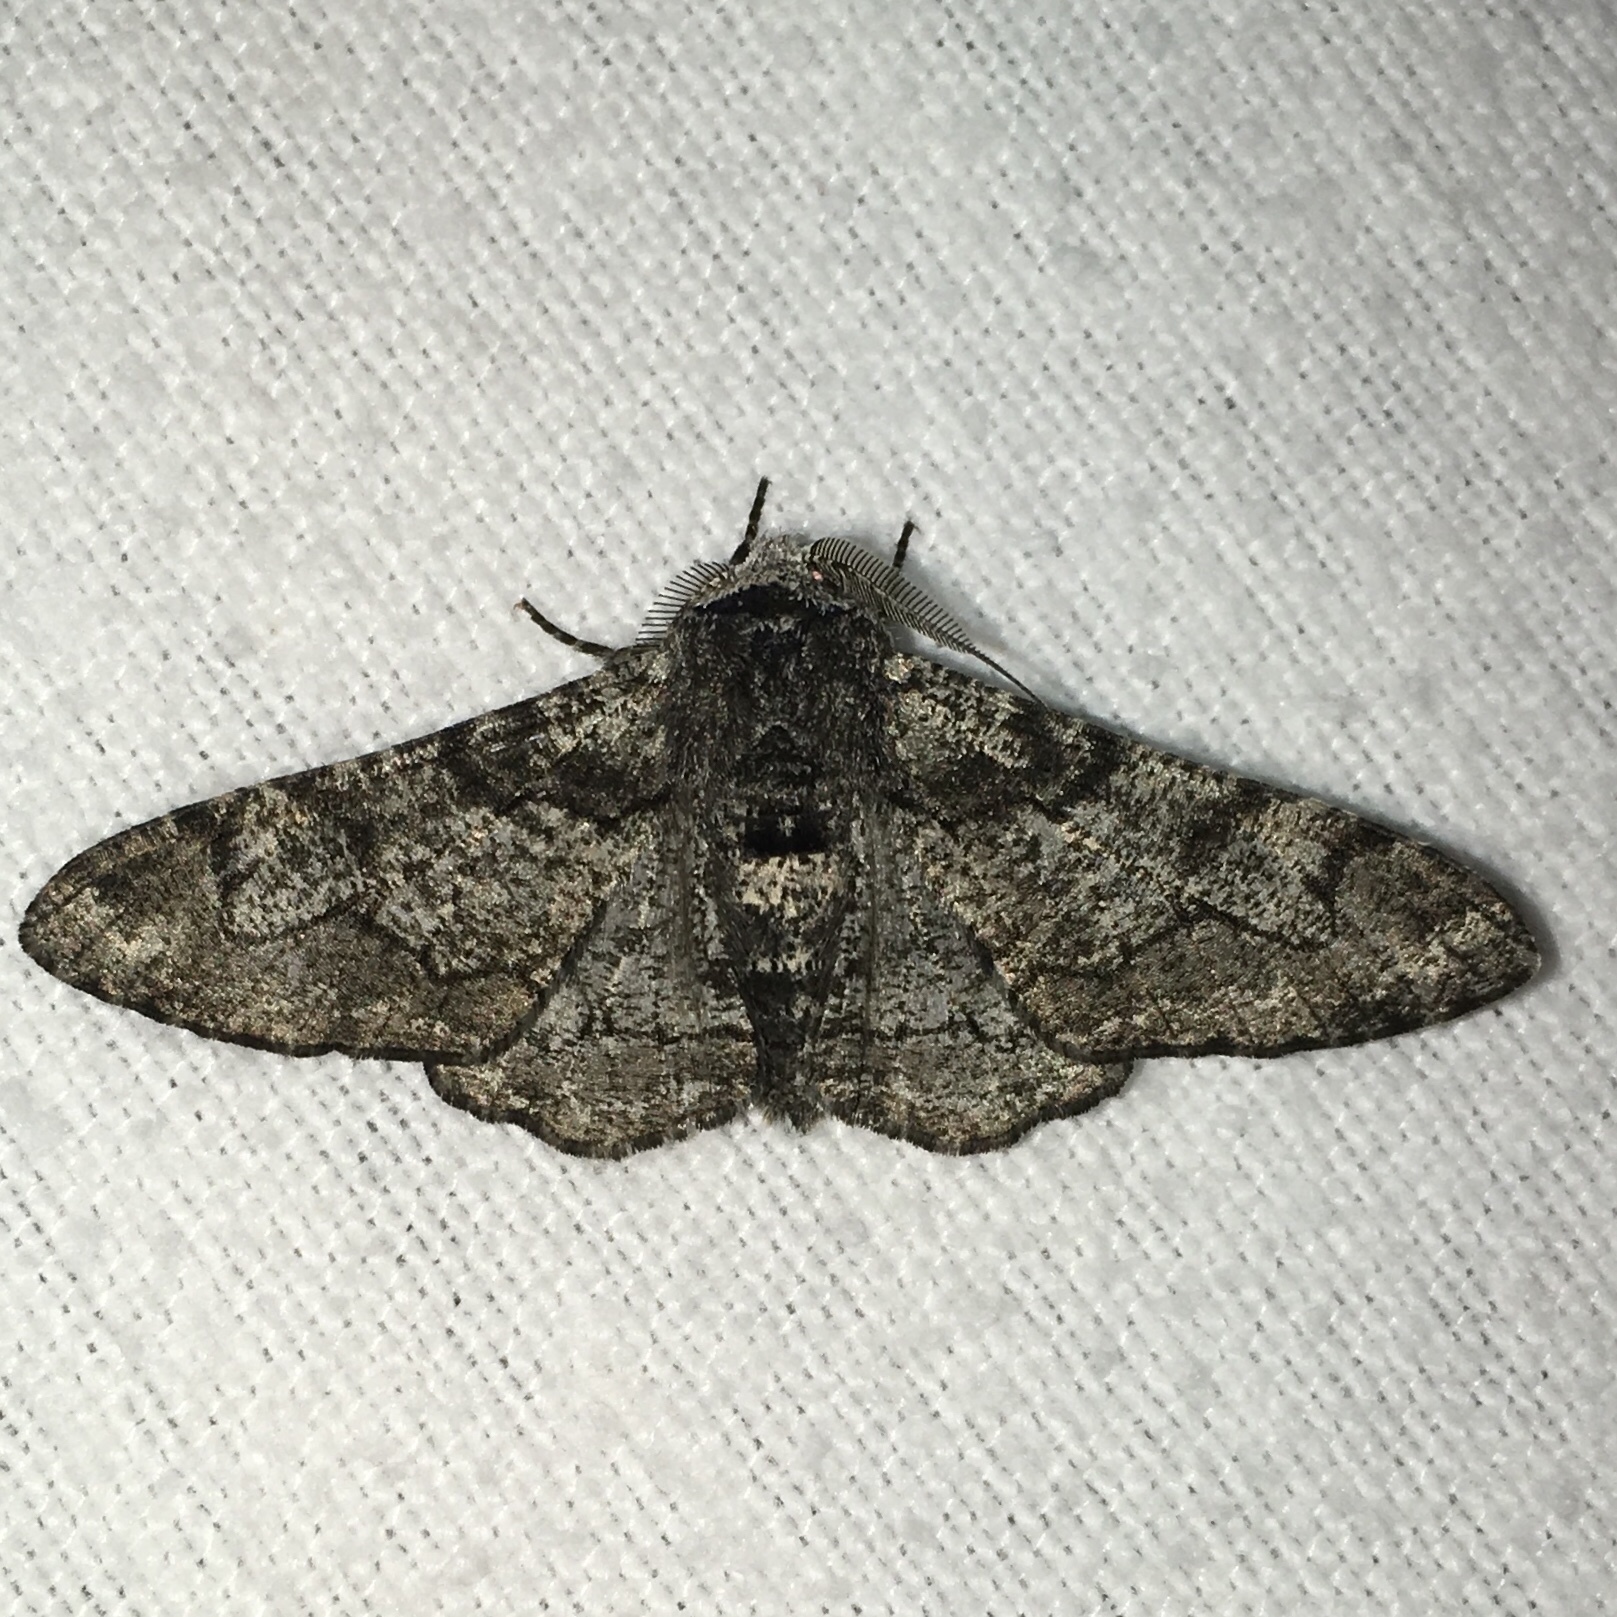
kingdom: Animalia
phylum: Arthropoda
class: Insecta
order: Lepidoptera
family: Geometridae
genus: Biston
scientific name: Biston betularia
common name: Peppered moth
